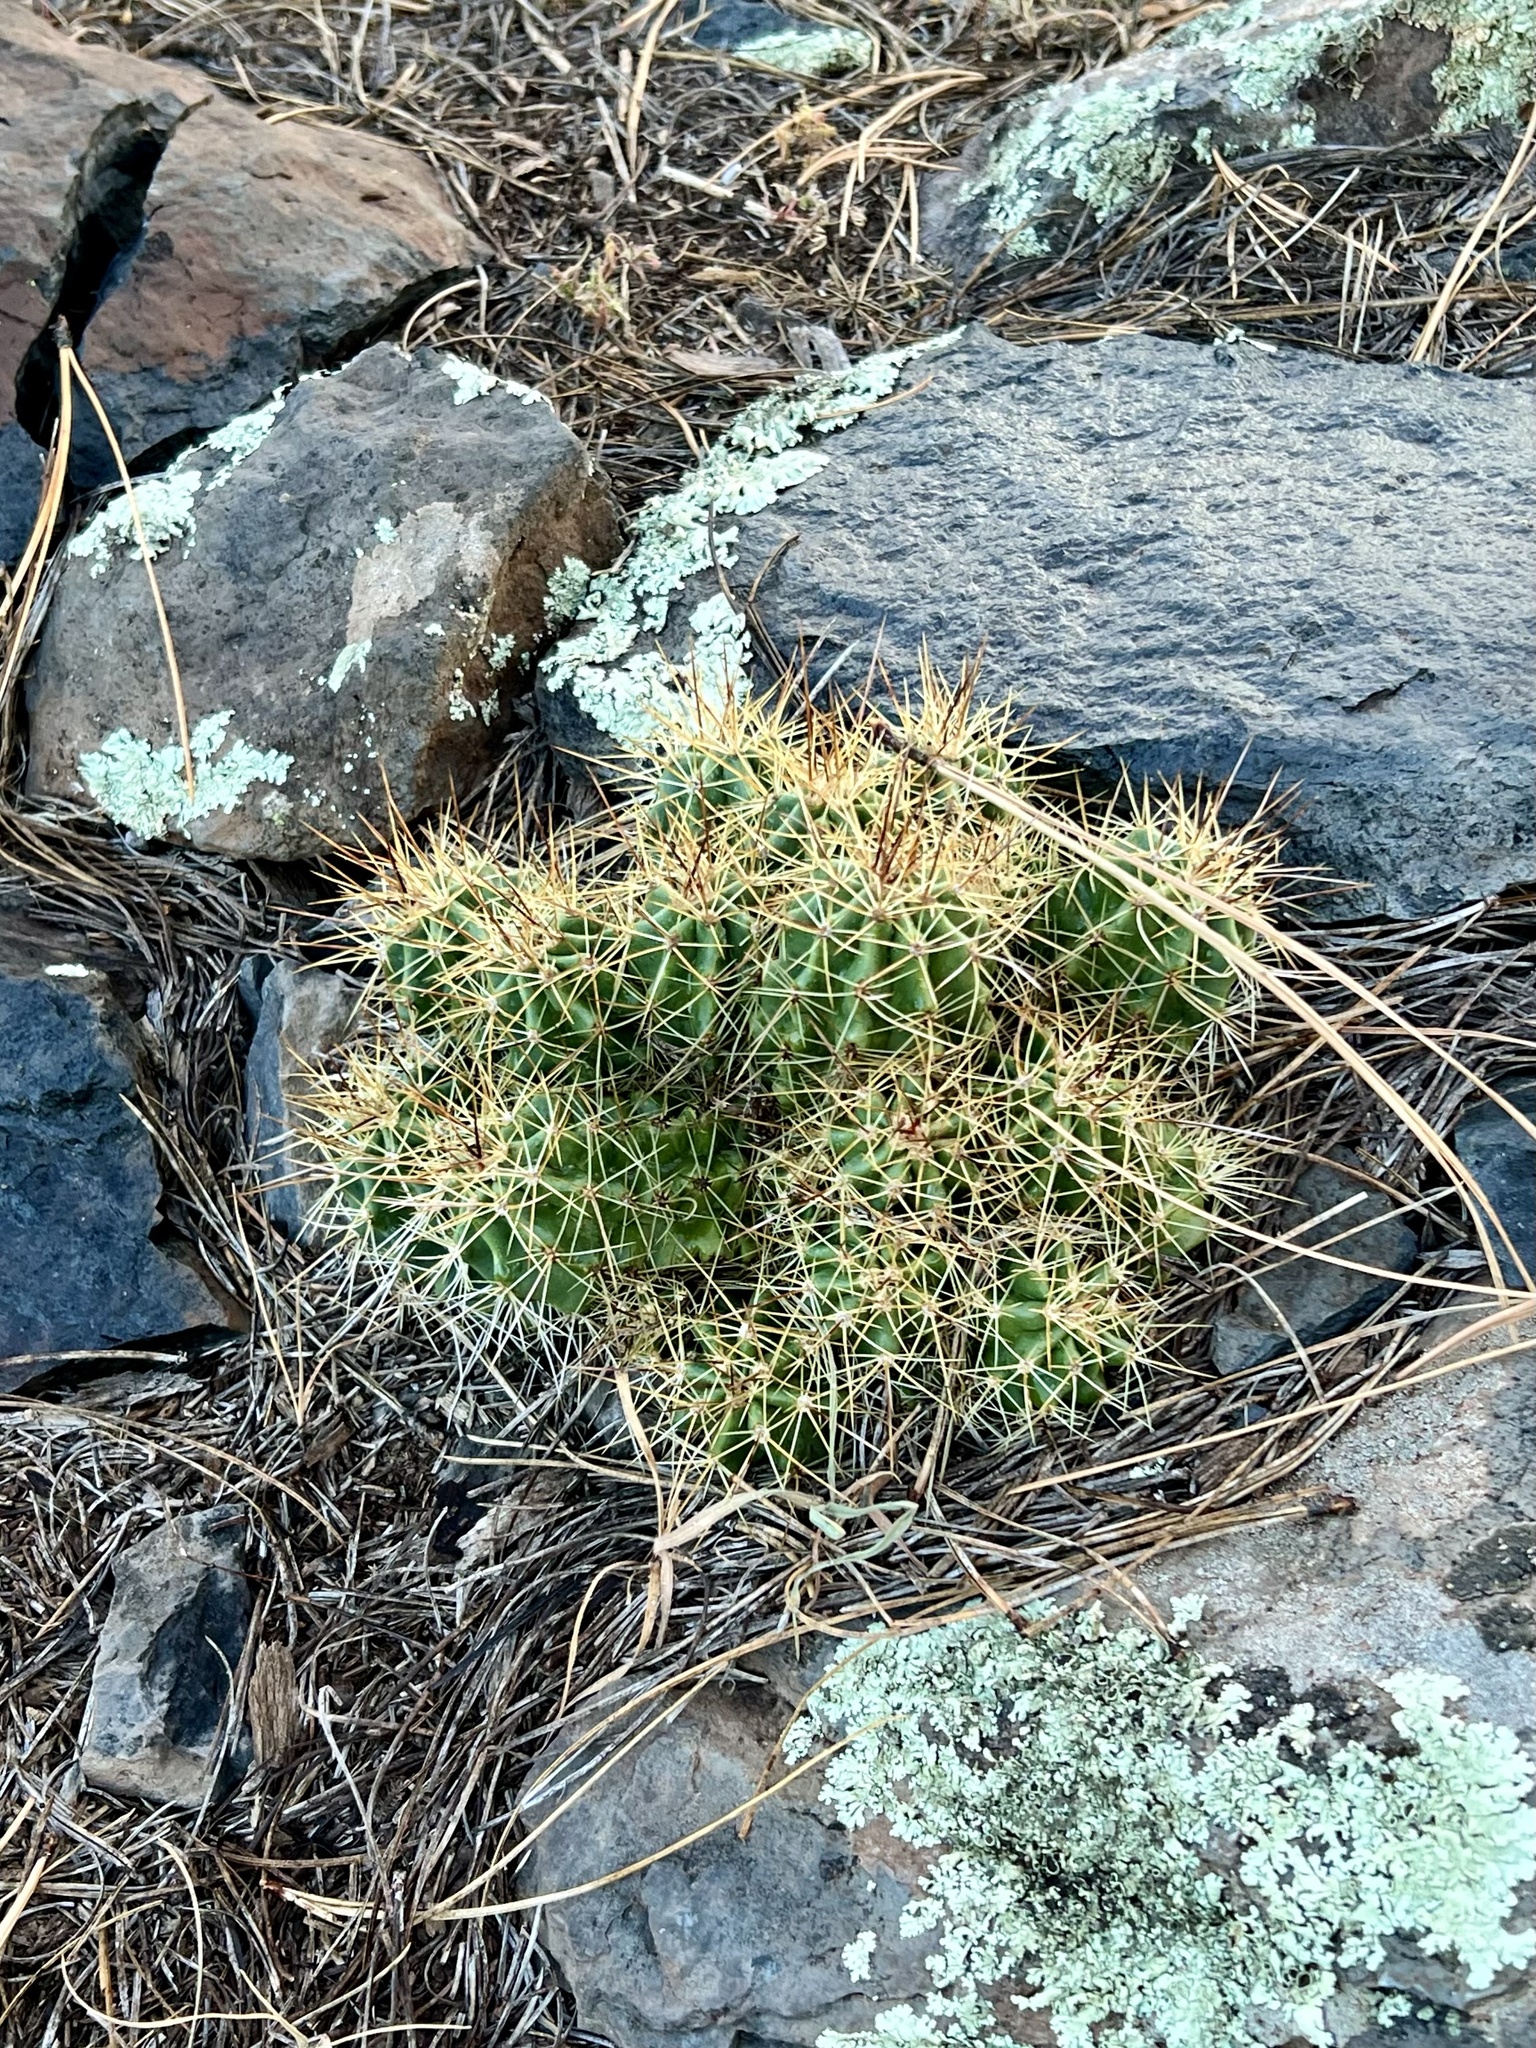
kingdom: Plantae
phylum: Tracheophyta
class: Magnoliopsida
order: Caryophyllales
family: Cactaceae
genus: Echinocereus
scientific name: Echinocereus bakeri
